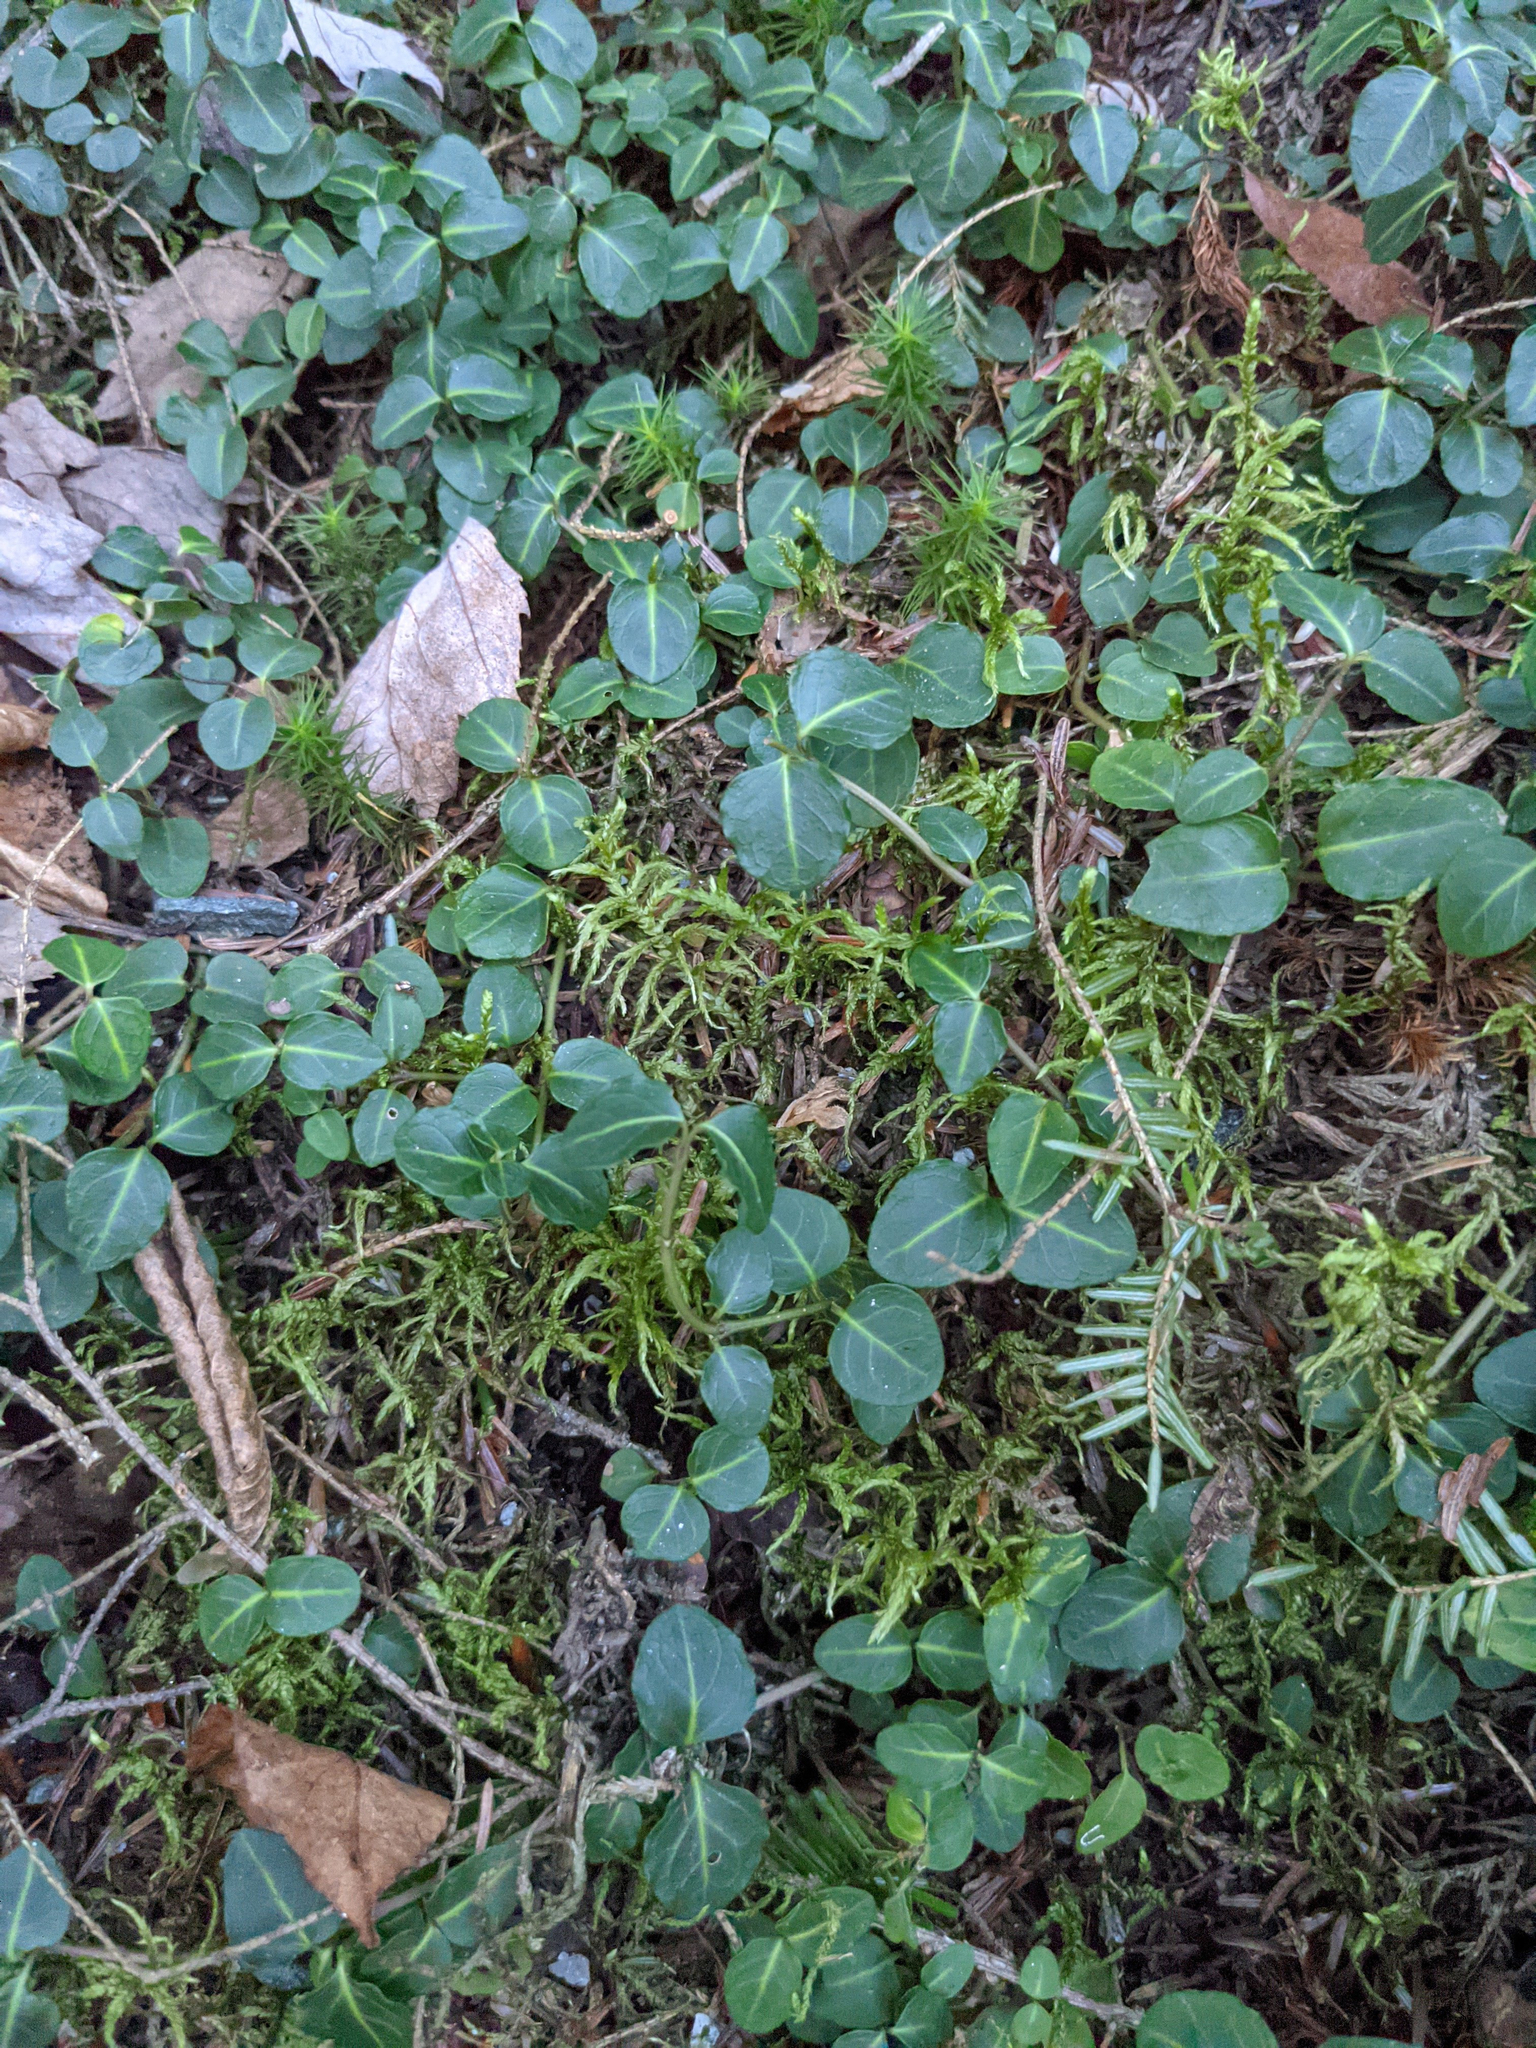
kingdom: Plantae
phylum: Tracheophyta
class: Magnoliopsida
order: Gentianales
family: Rubiaceae
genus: Mitchella
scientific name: Mitchella repens
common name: Partridge-berry
